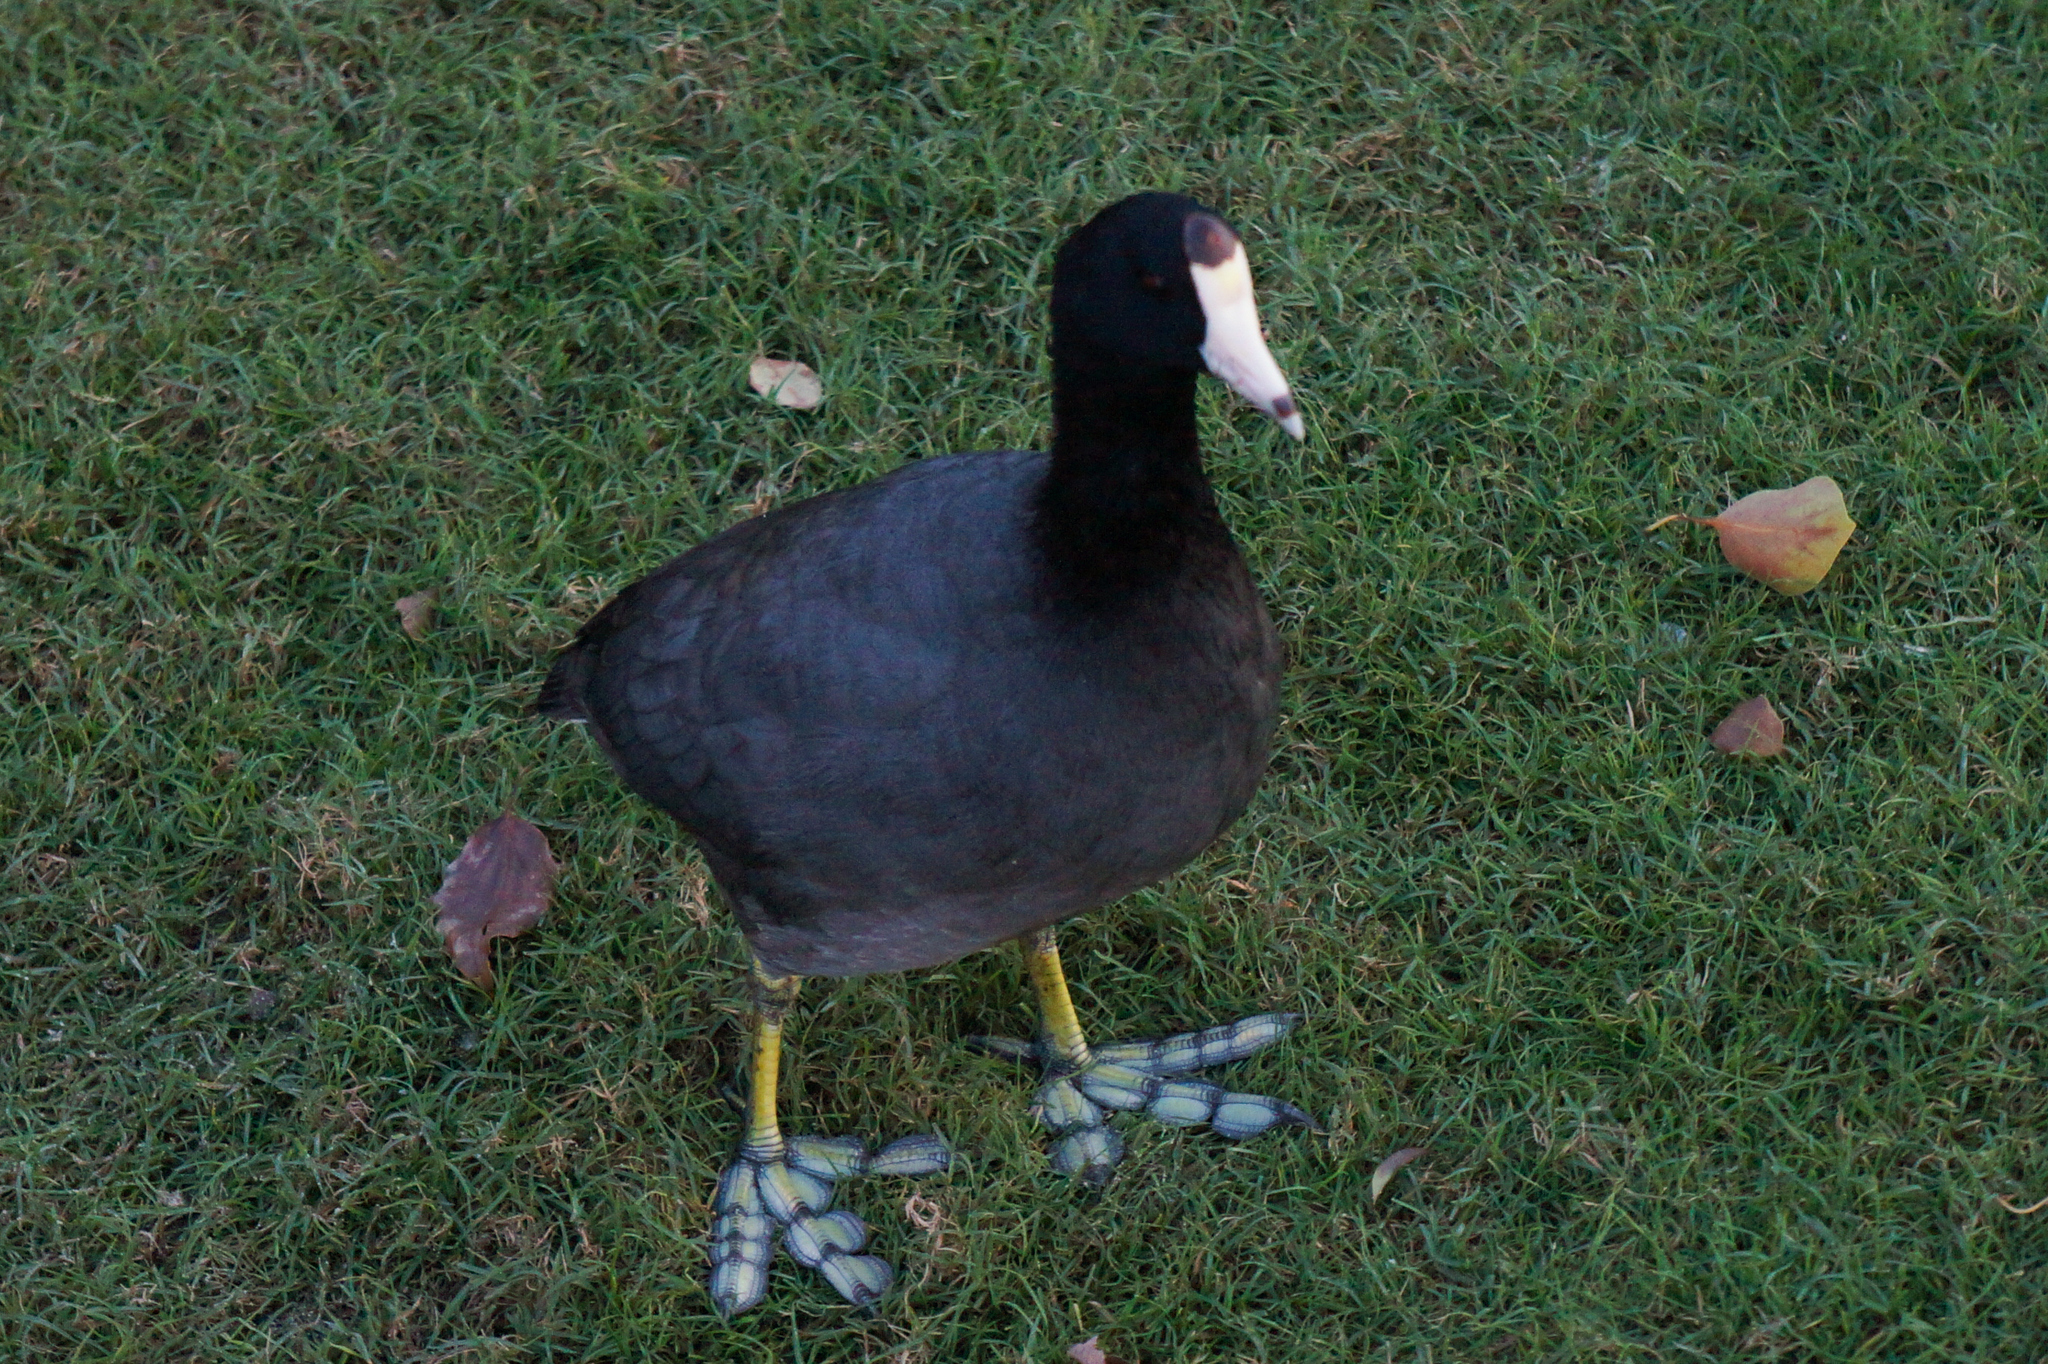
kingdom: Animalia
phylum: Chordata
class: Aves
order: Gruiformes
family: Rallidae
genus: Fulica
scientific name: Fulica americana
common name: American coot
